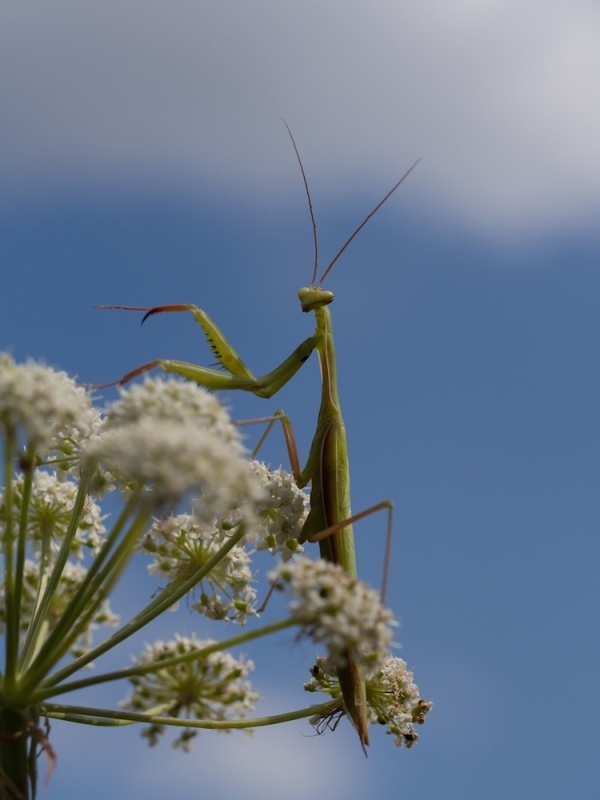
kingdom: Animalia
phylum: Arthropoda
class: Insecta
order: Mantodea
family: Mantidae
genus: Mantis
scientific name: Mantis religiosa
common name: Praying mantis
